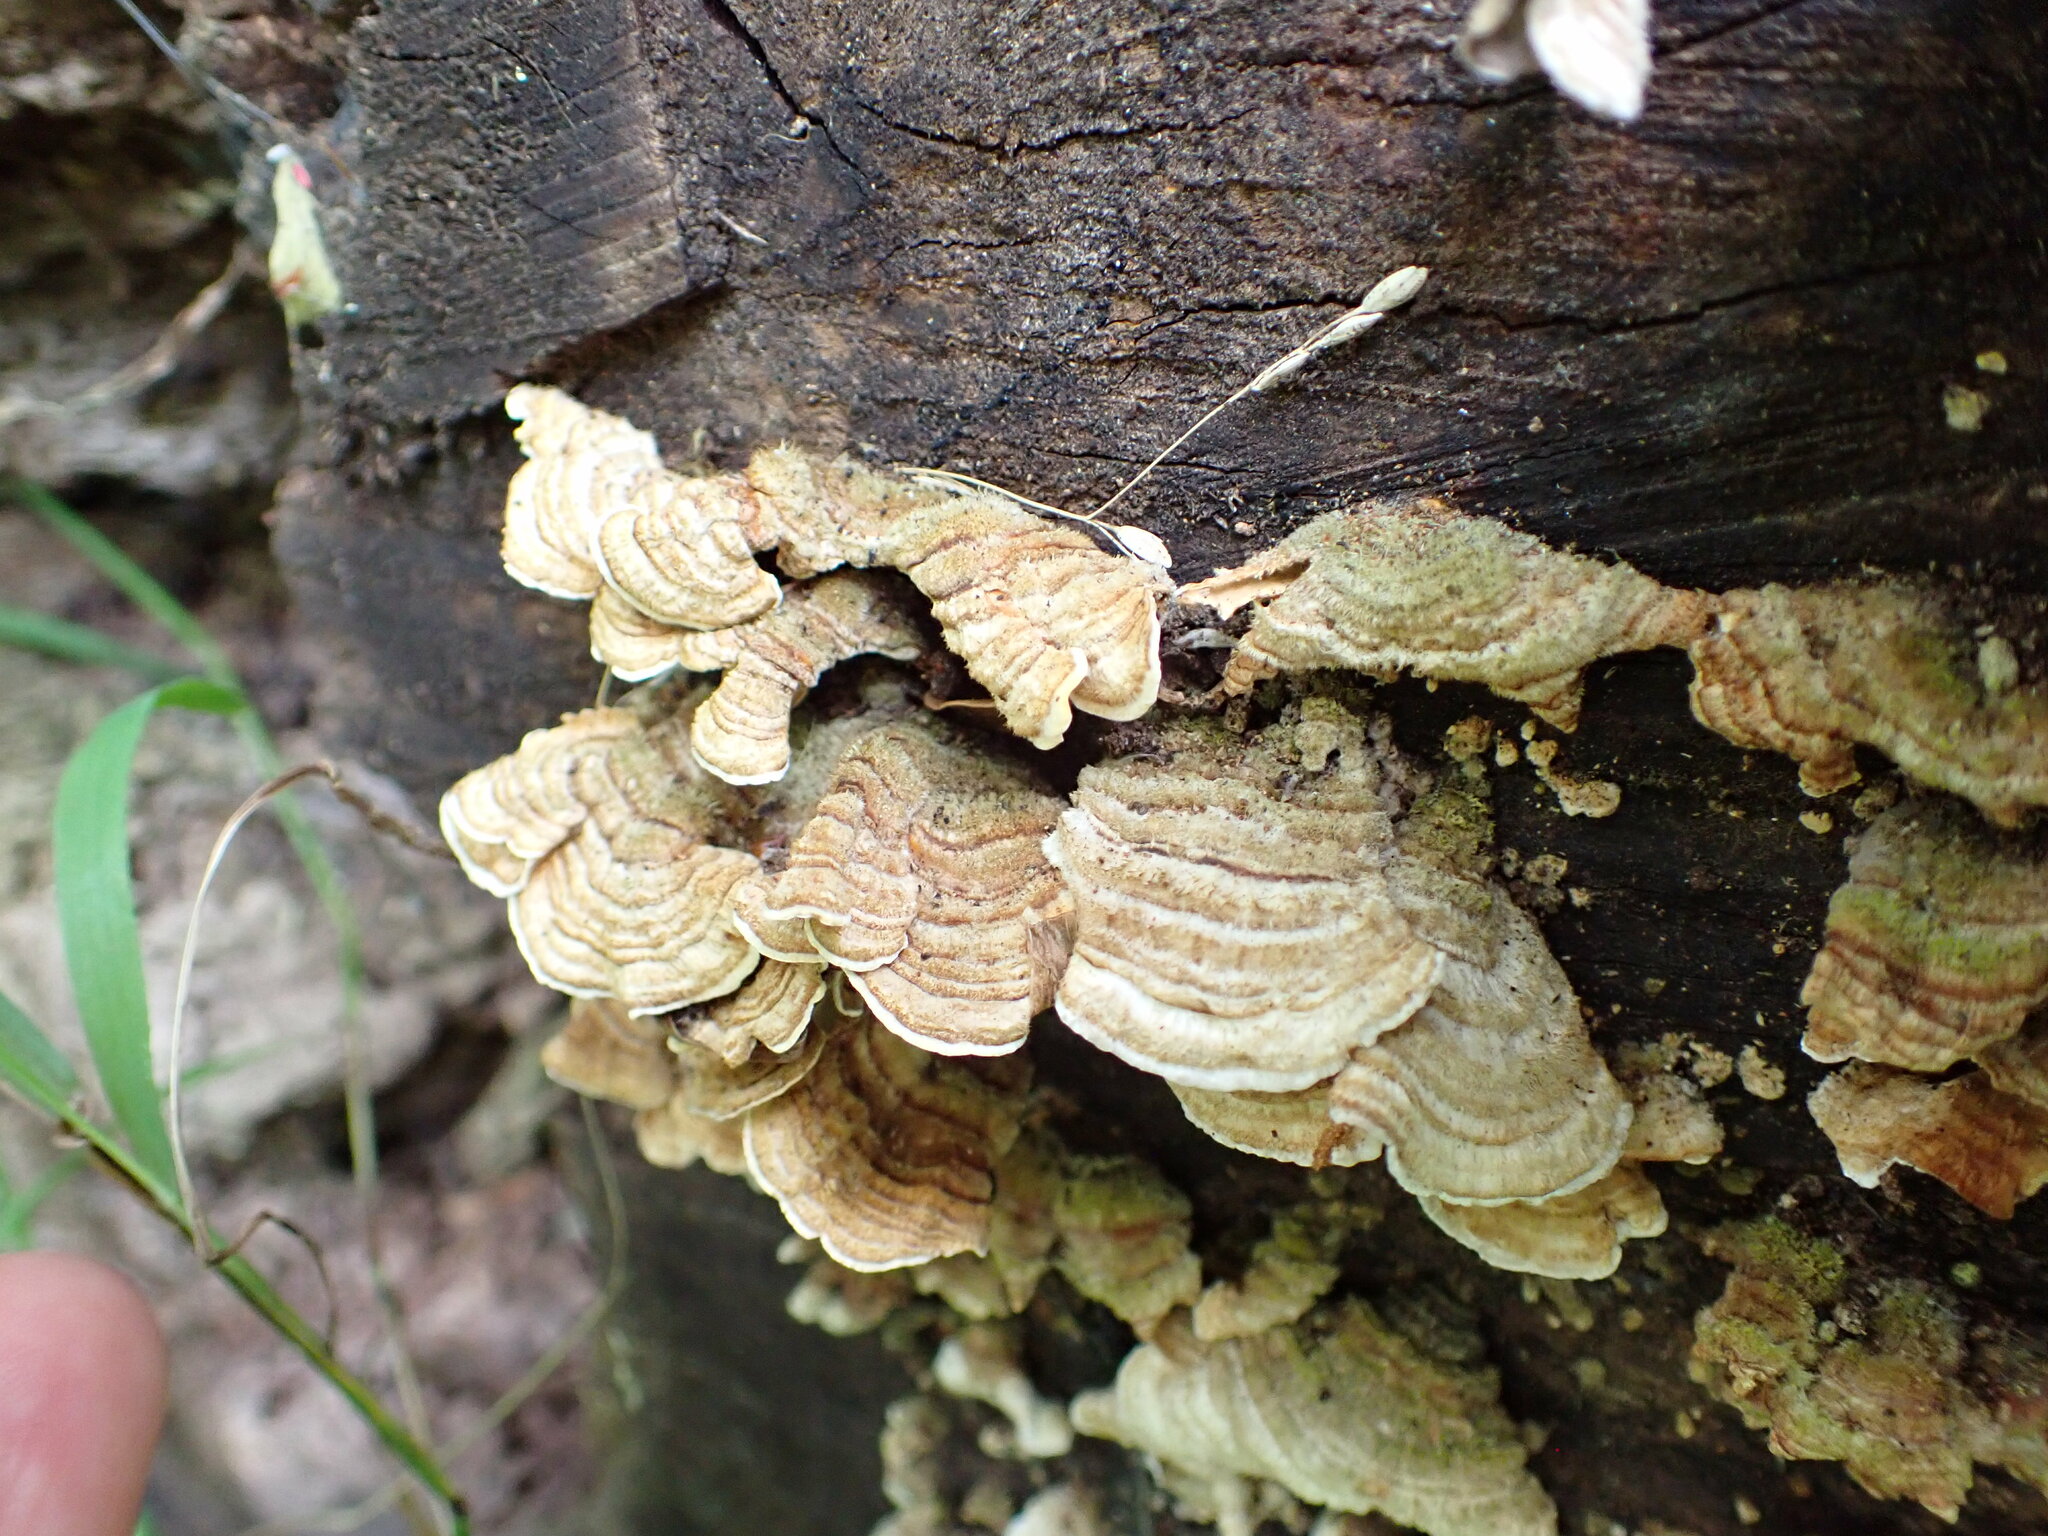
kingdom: Fungi
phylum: Basidiomycota
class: Agaricomycetes
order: Russulales
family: Stereaceae
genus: Stereum
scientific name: Stereum hirsutum
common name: Hairy curtain crust
